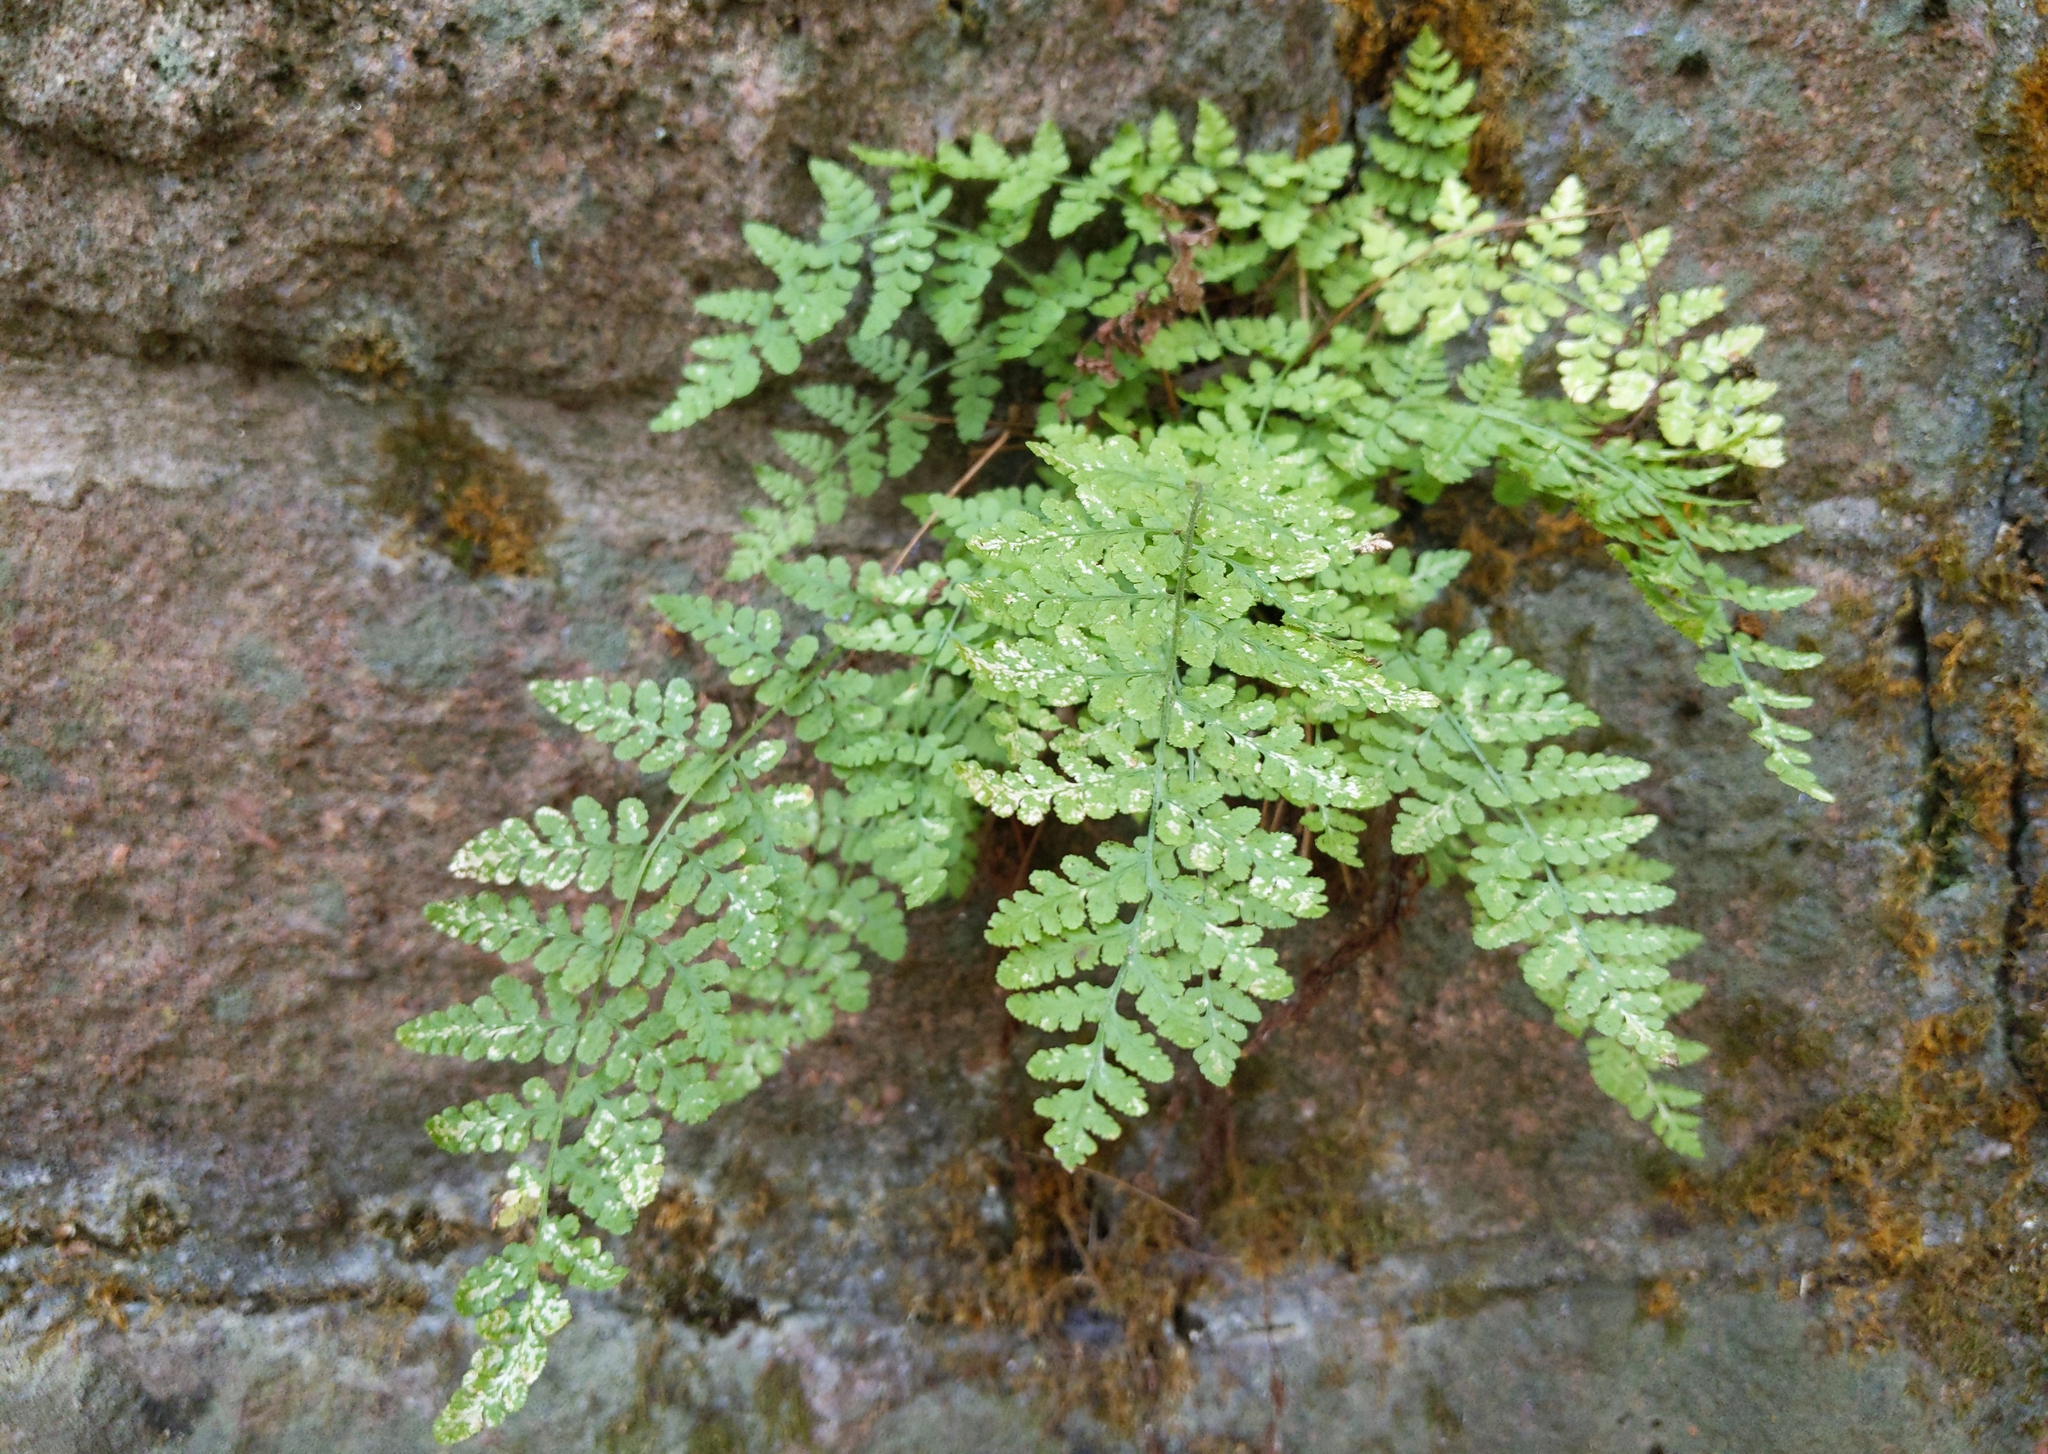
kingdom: Plantae
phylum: Tracheophyta
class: Polypodiopsida
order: Polypodiales
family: Woodsiaceae
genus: Physematium
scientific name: Physematium obtusum
